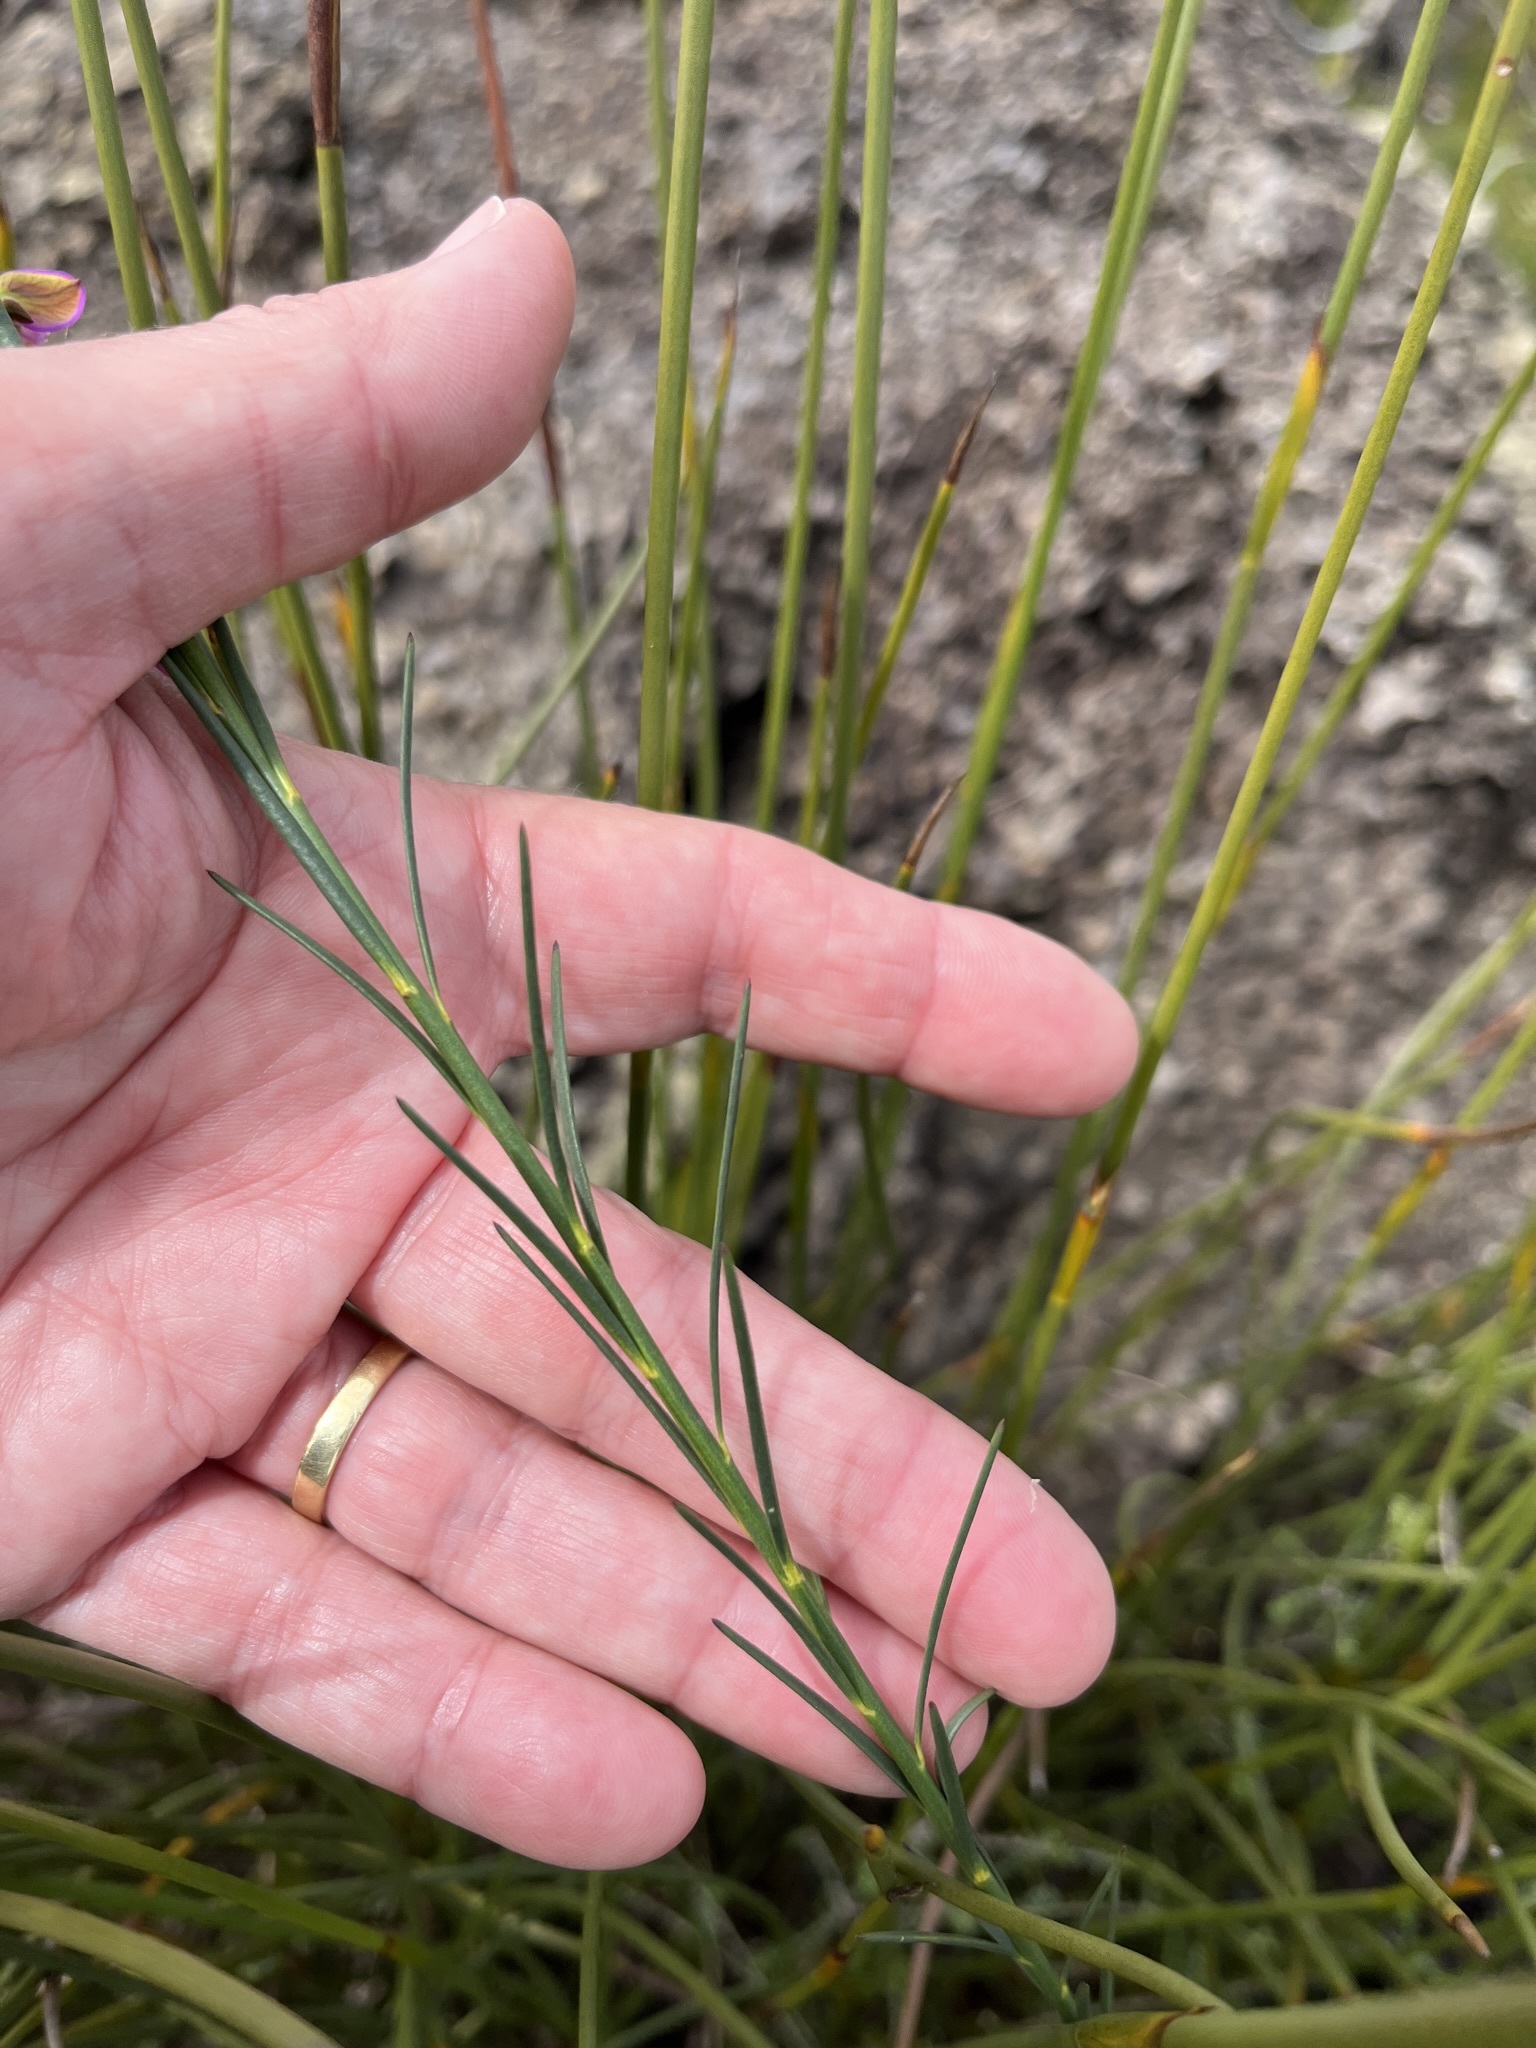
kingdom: Plantae
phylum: Tracheophyta
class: Magnoliopsida
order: Fabales
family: Polygalaceae
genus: Polygala
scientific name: Polygala garcini
